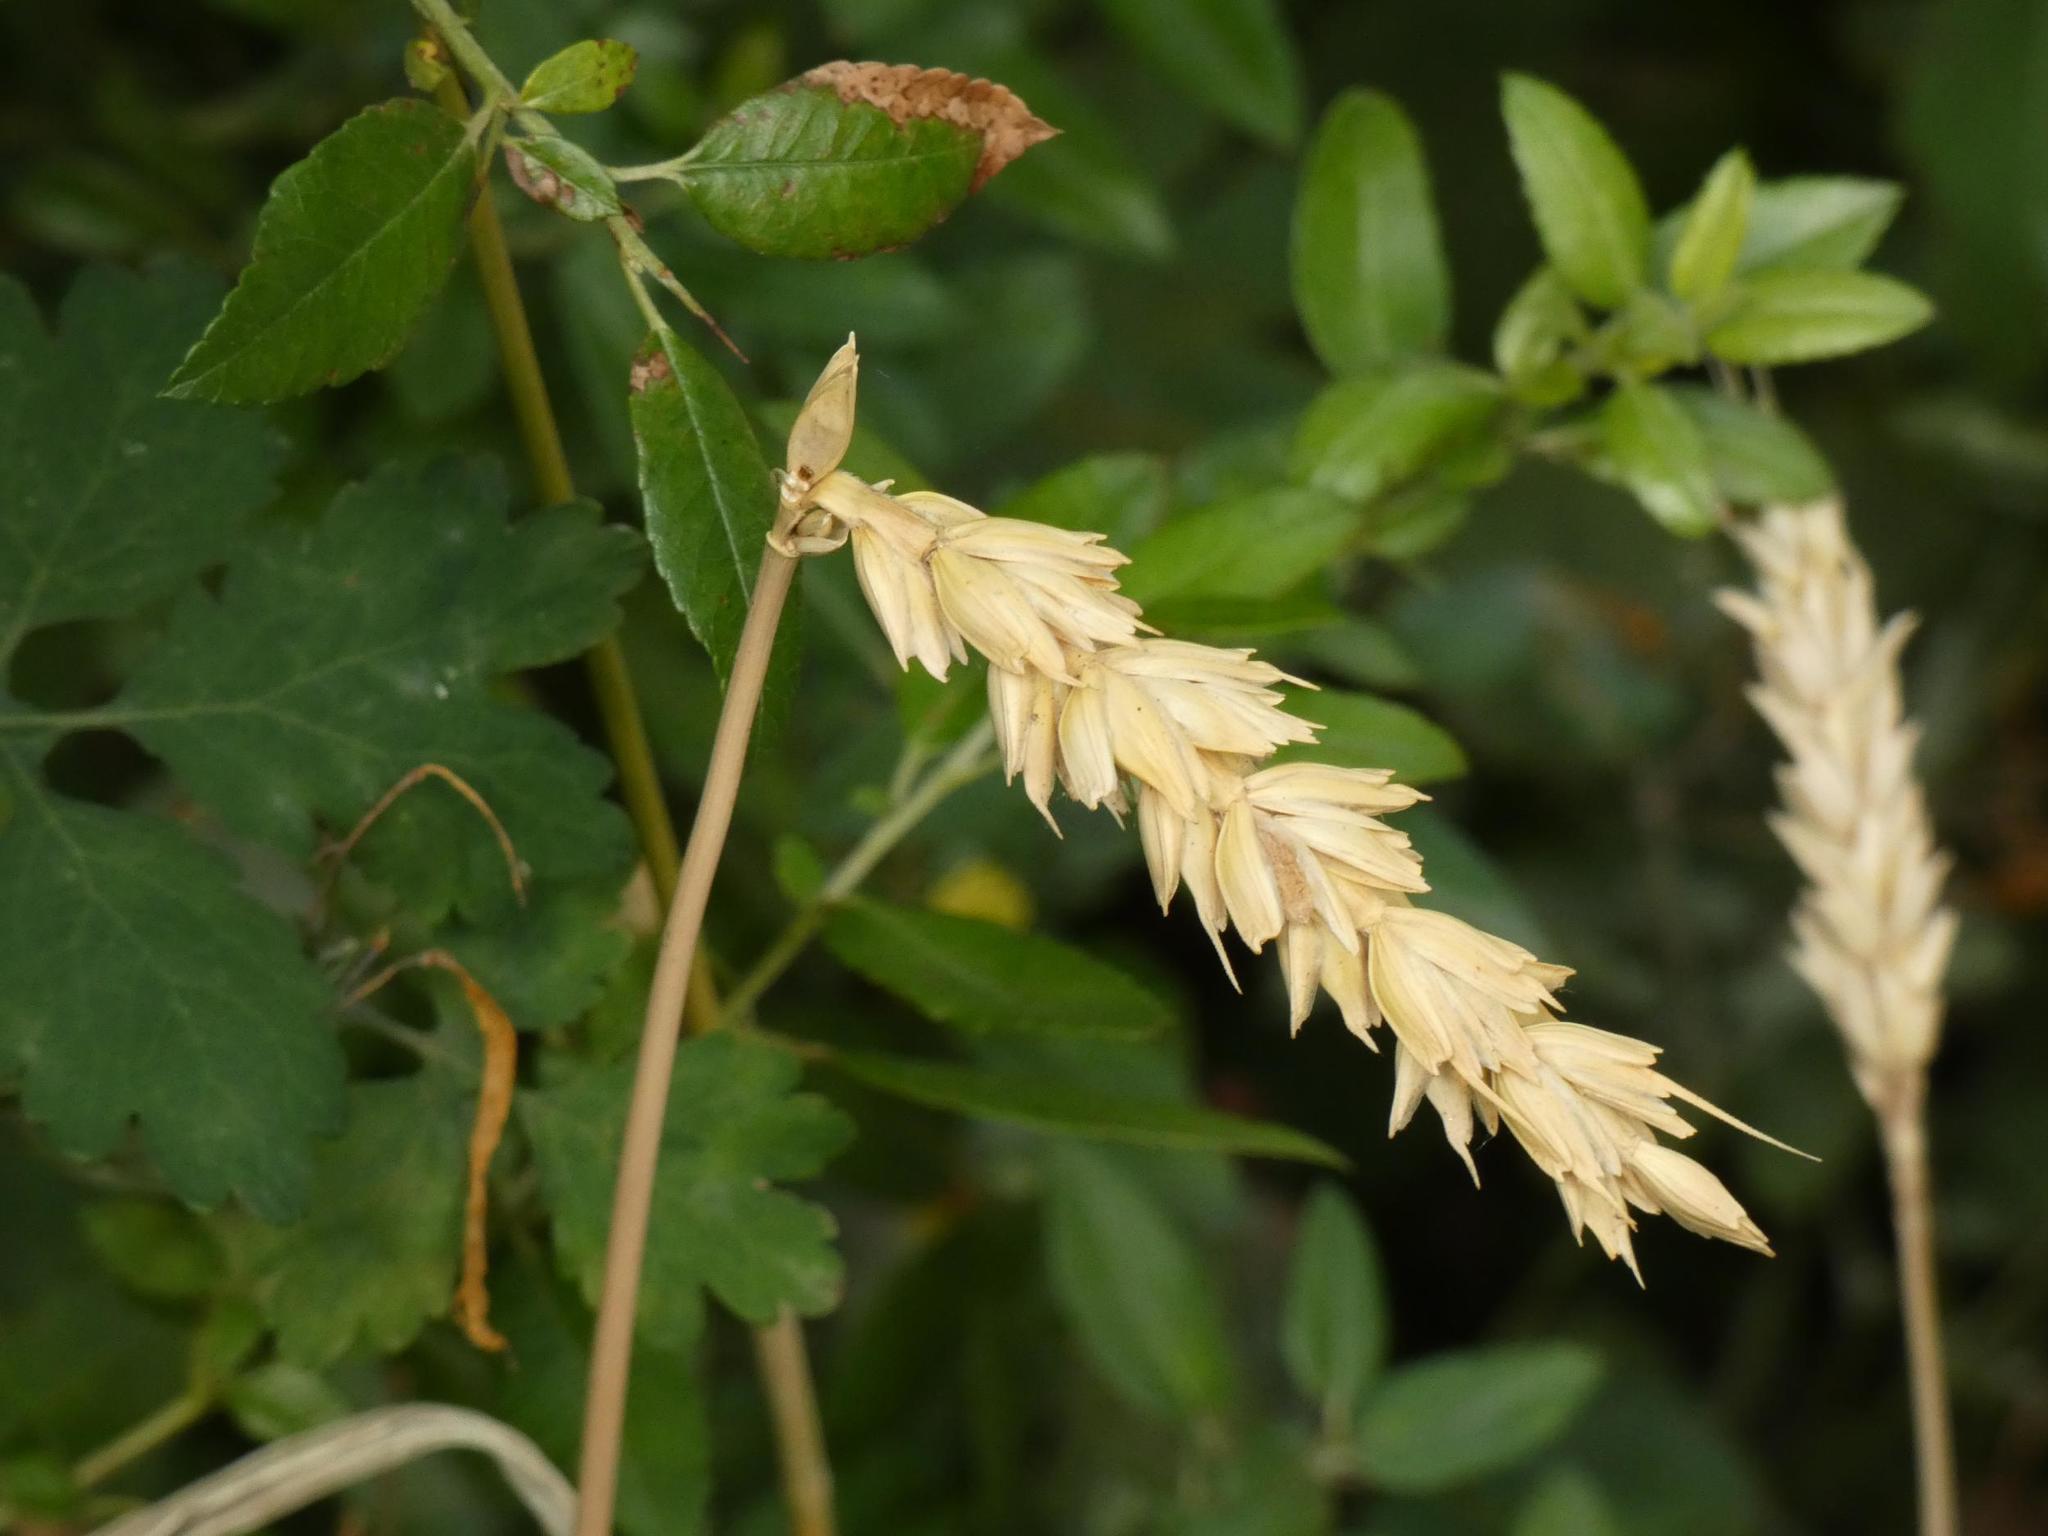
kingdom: Plantae
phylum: Tracheophyta
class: Liliopsida
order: Poales
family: Poaceae
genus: Triticum
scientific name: Triticum aestivum
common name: Common wheat
